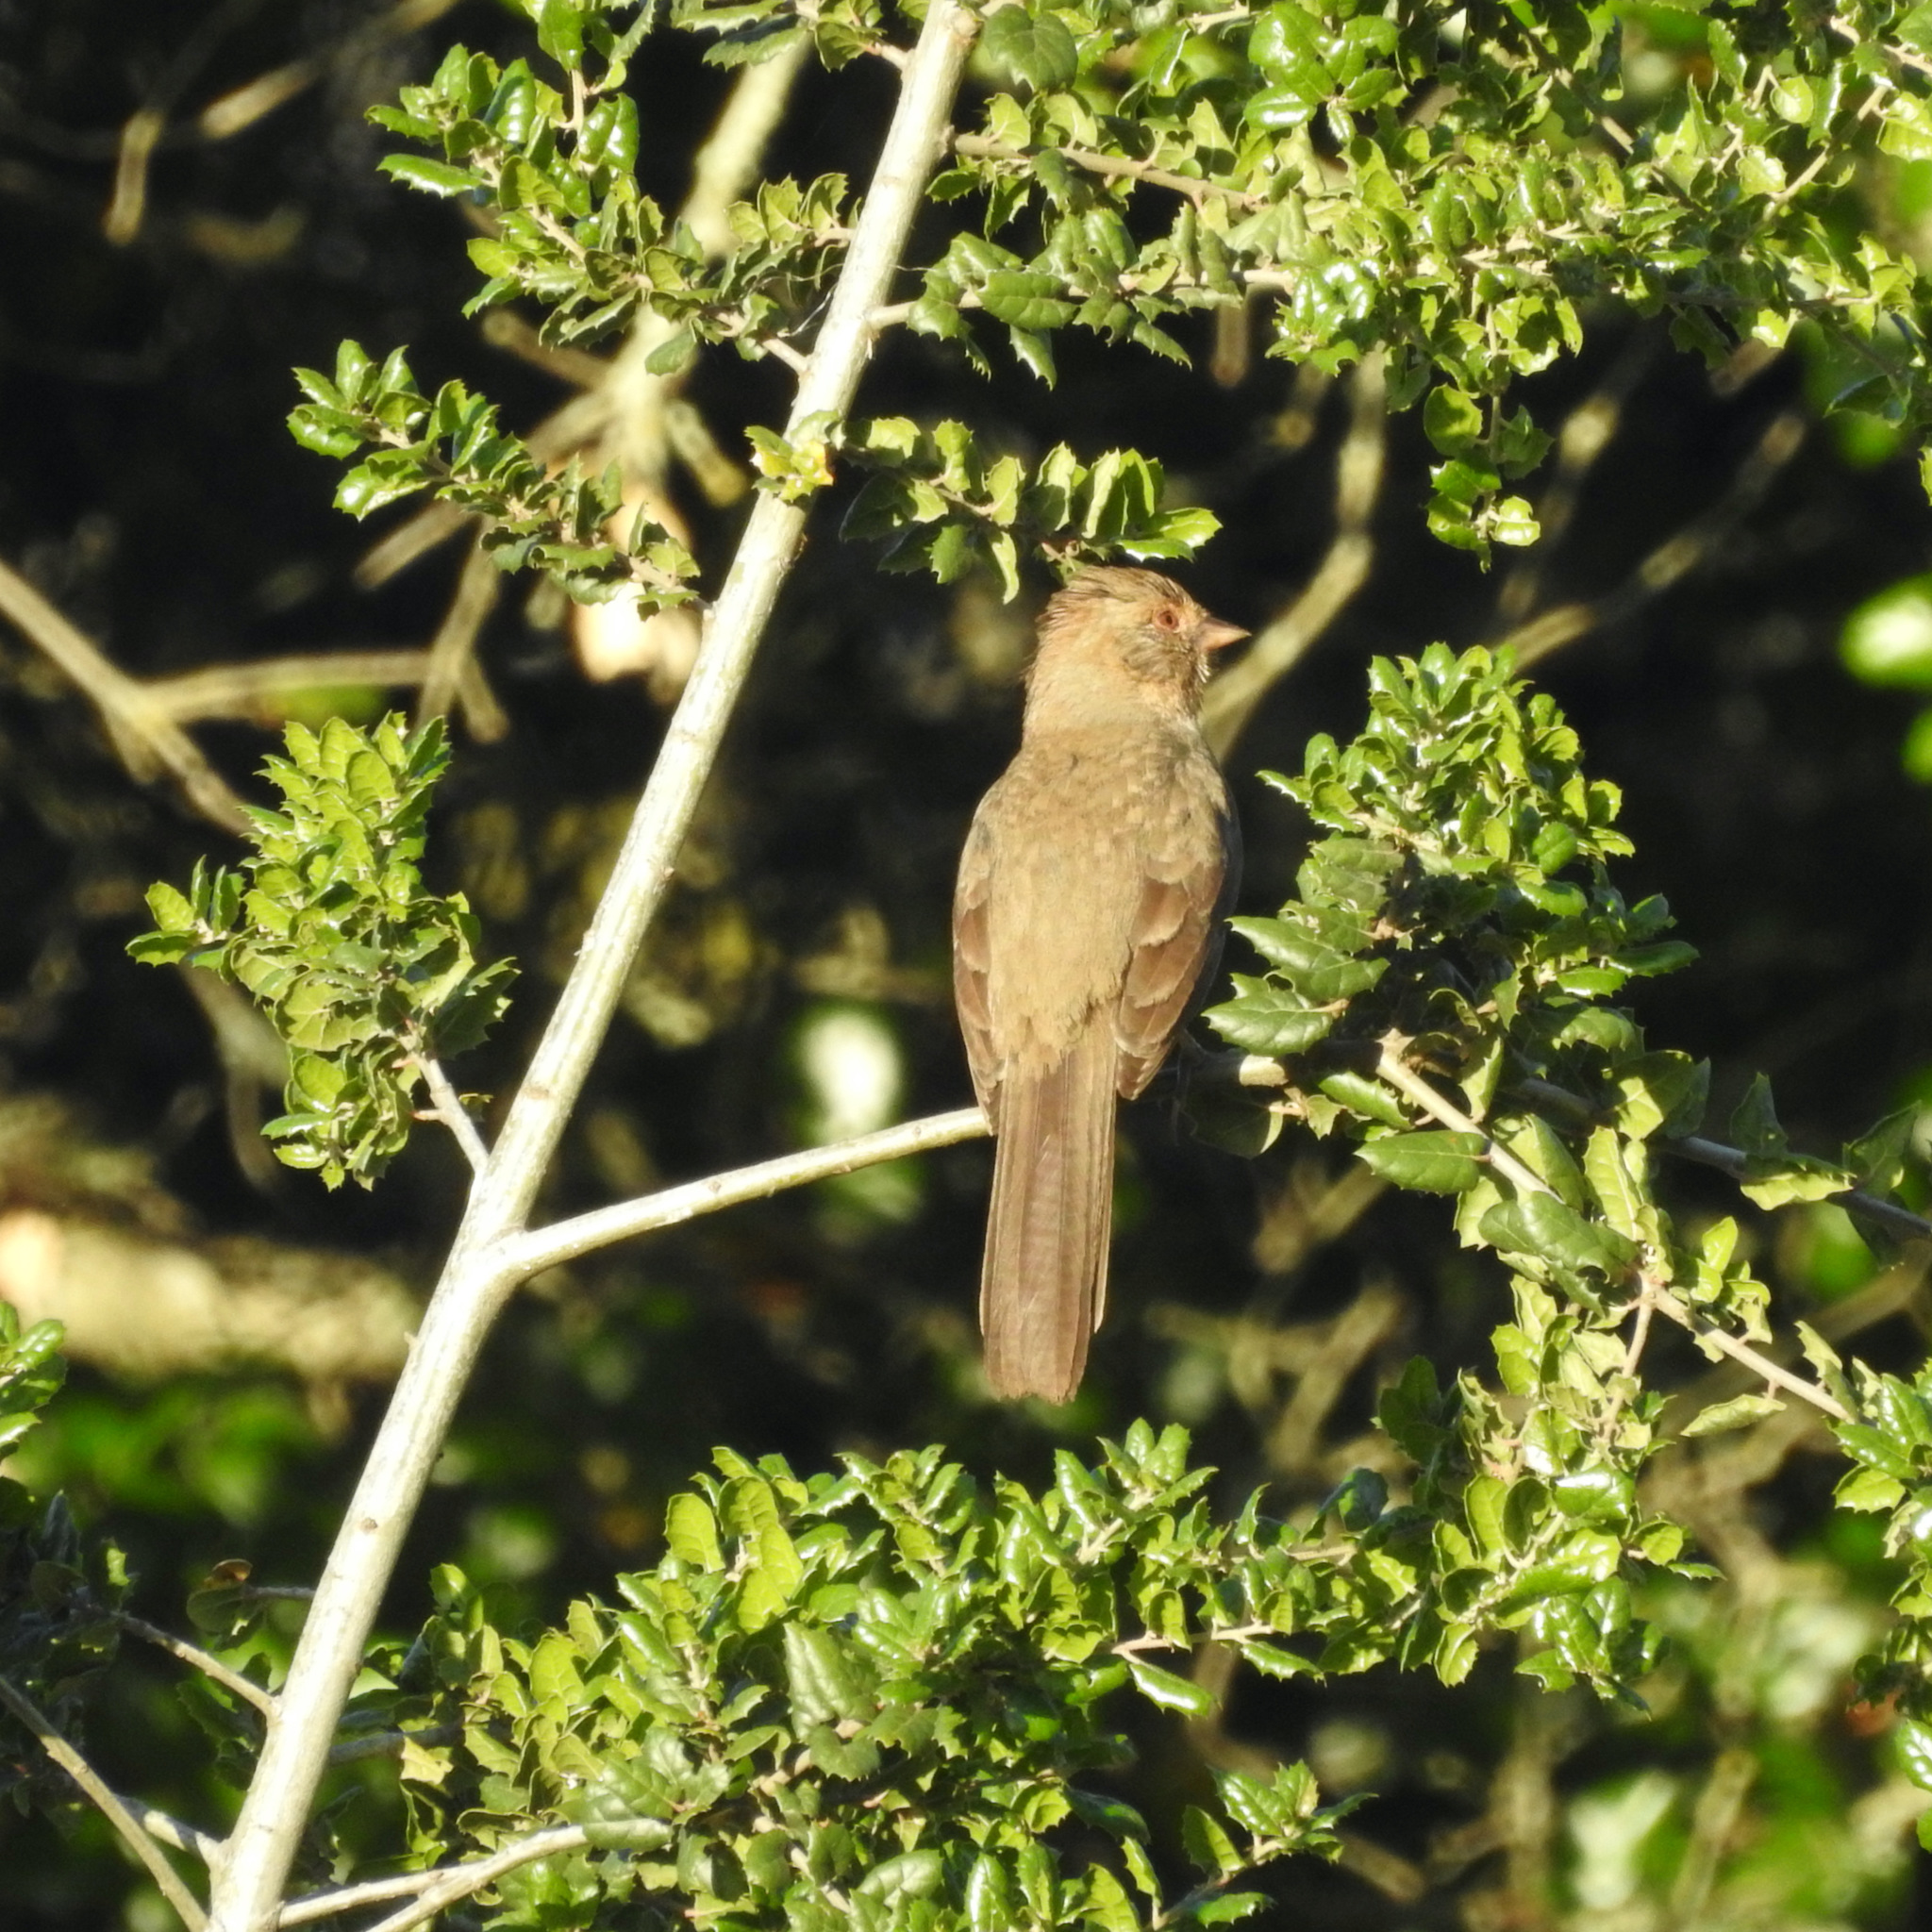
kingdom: Animalia
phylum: Chordata
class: Aves
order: Passeriformes
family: Passerellidae
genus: Melozone
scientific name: Melozone crissalis
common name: California towhee
